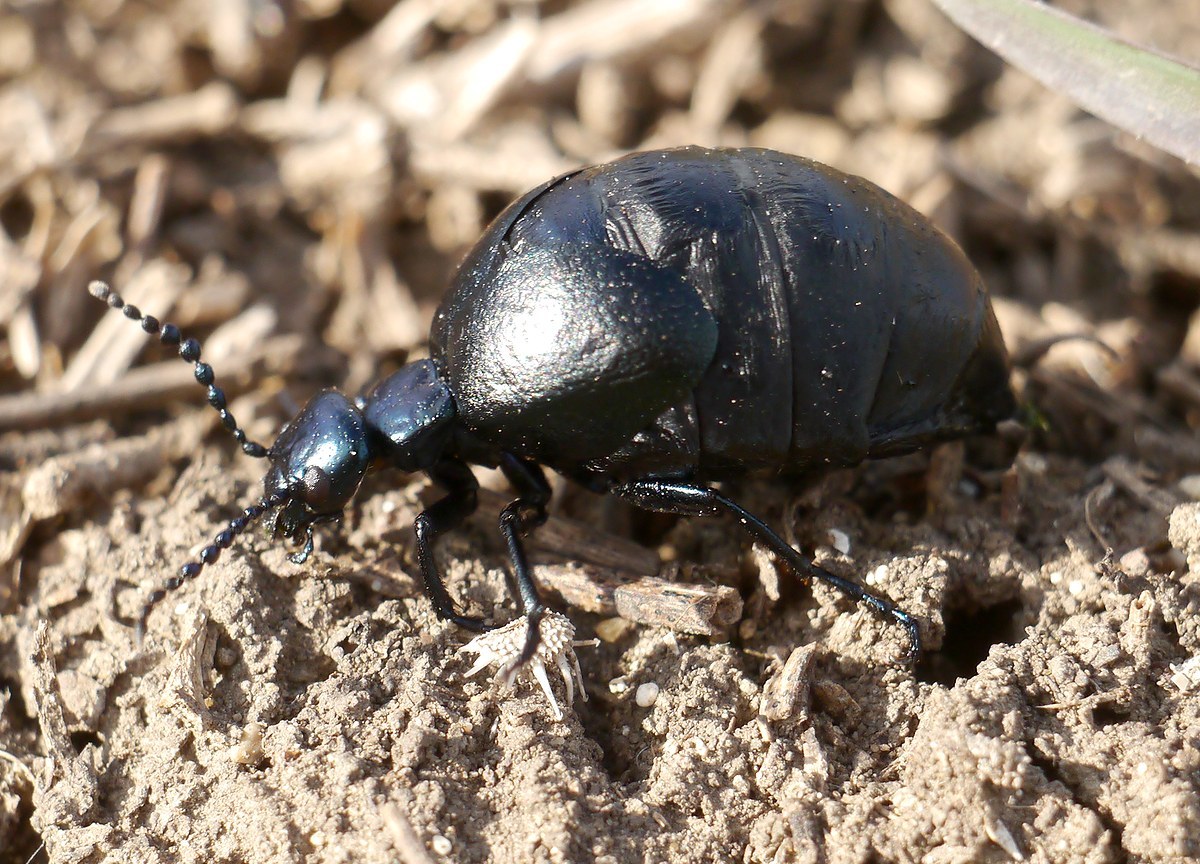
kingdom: Animalia
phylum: Arthropoda
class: Insecta
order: Coleoptera
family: Meloidae
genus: Meloe
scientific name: Meloe autumnalis
